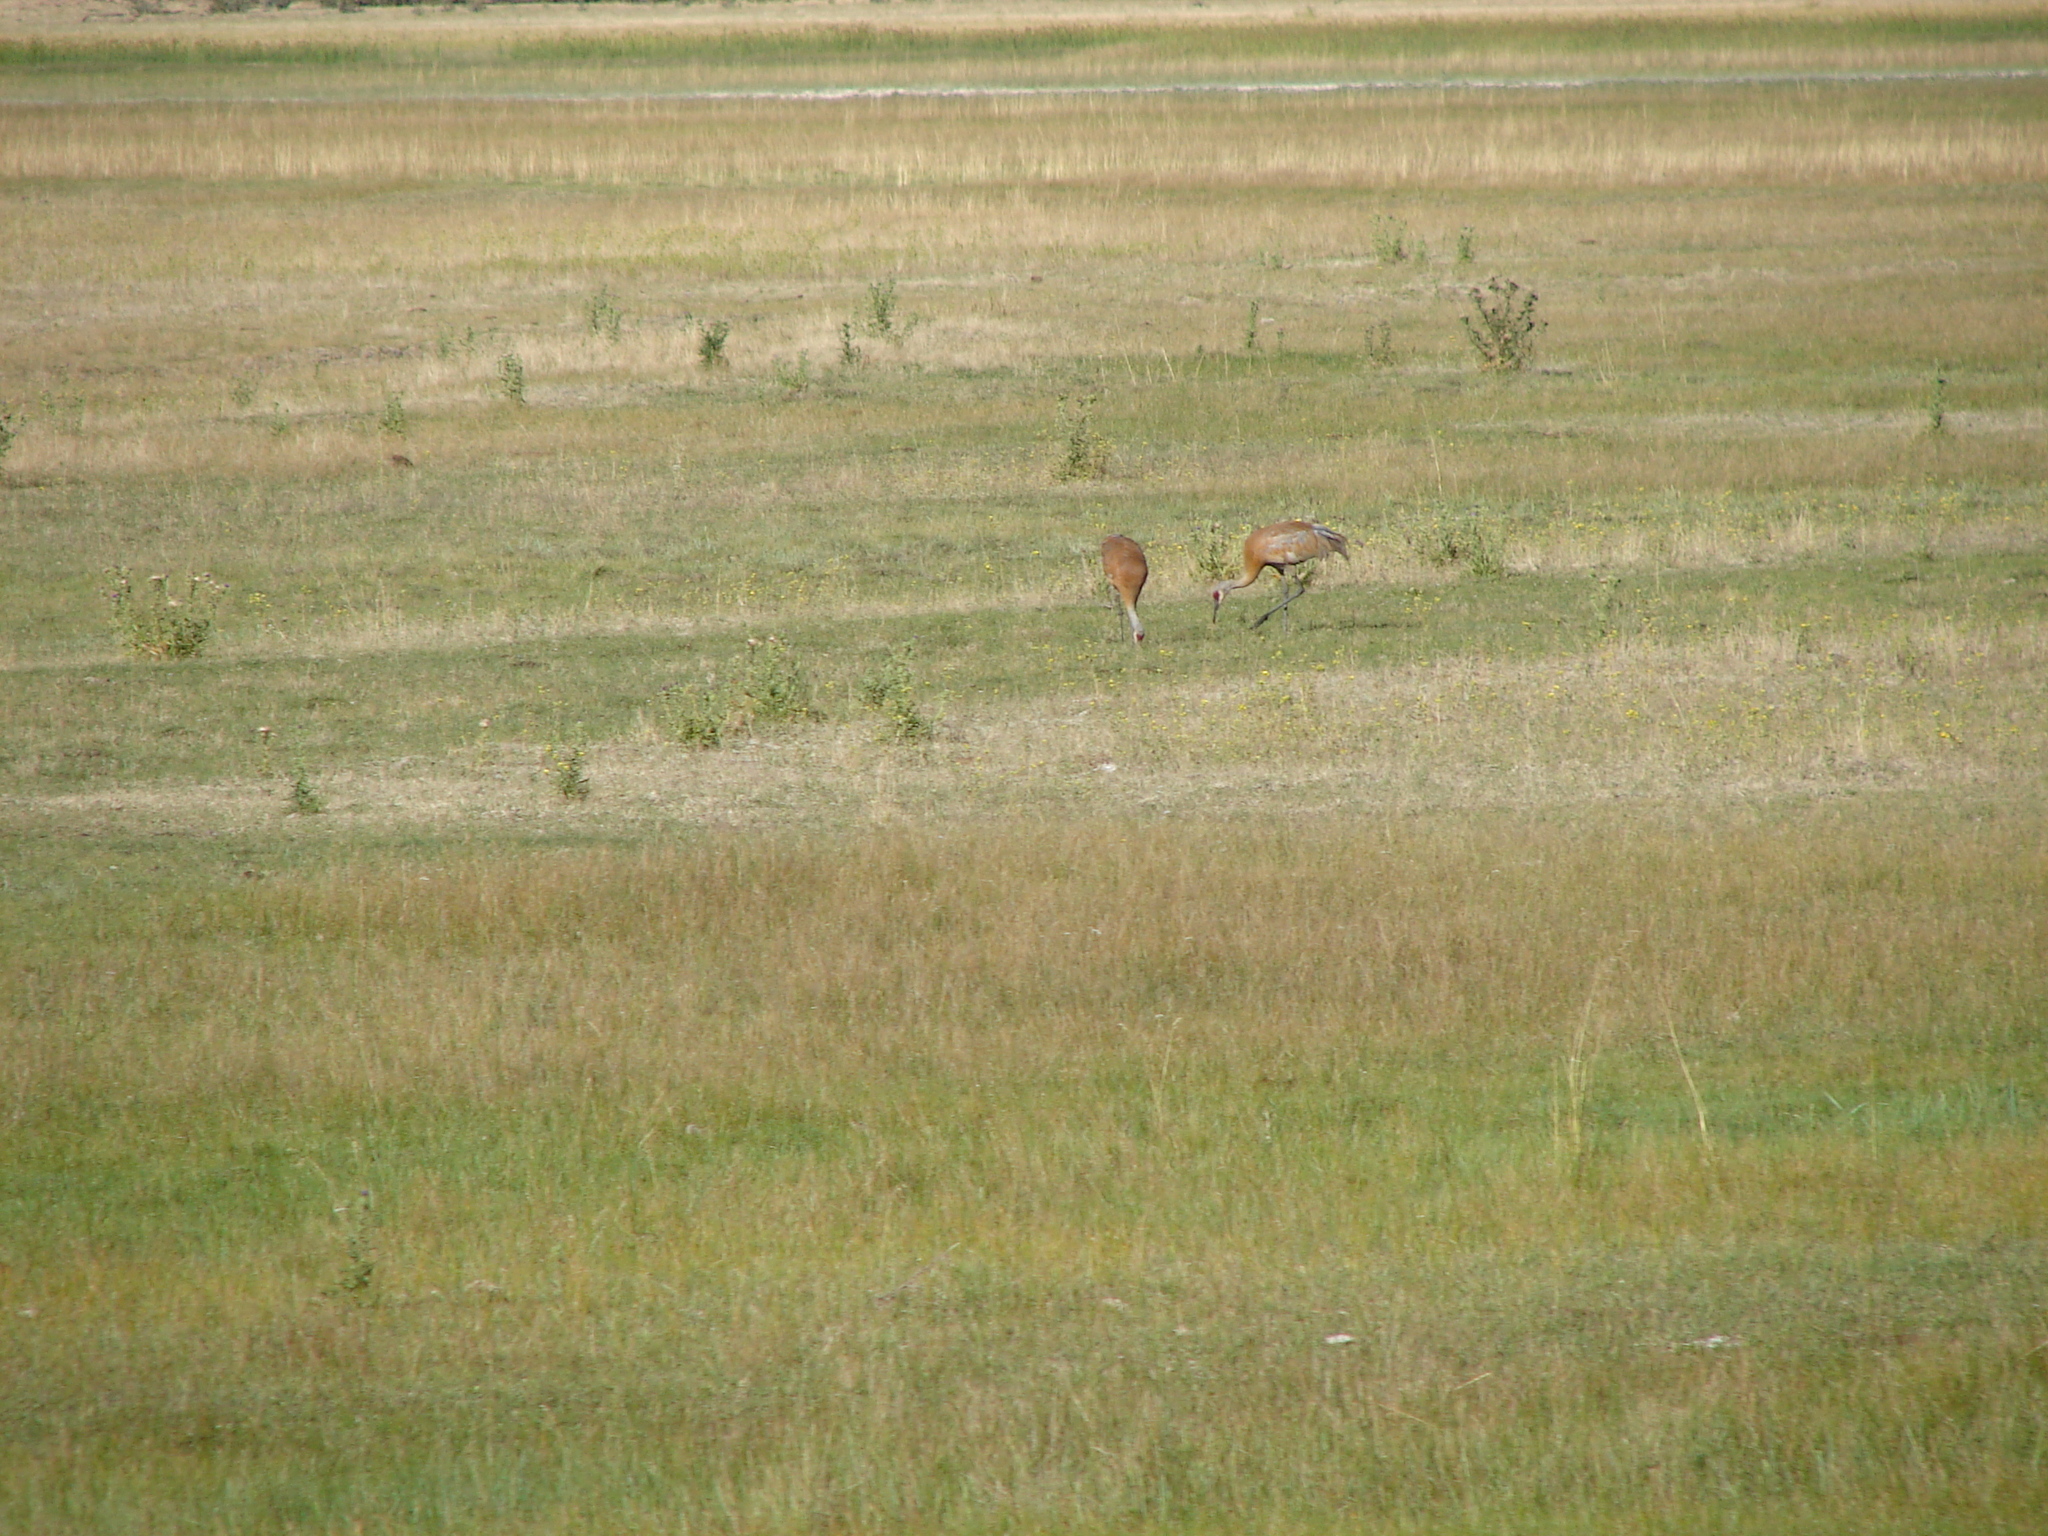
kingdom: Animalia
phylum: Chordata
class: Aves
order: Gruiformes
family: Gruidae
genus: Grus
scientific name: Grus canadensis
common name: Sandhill crane
